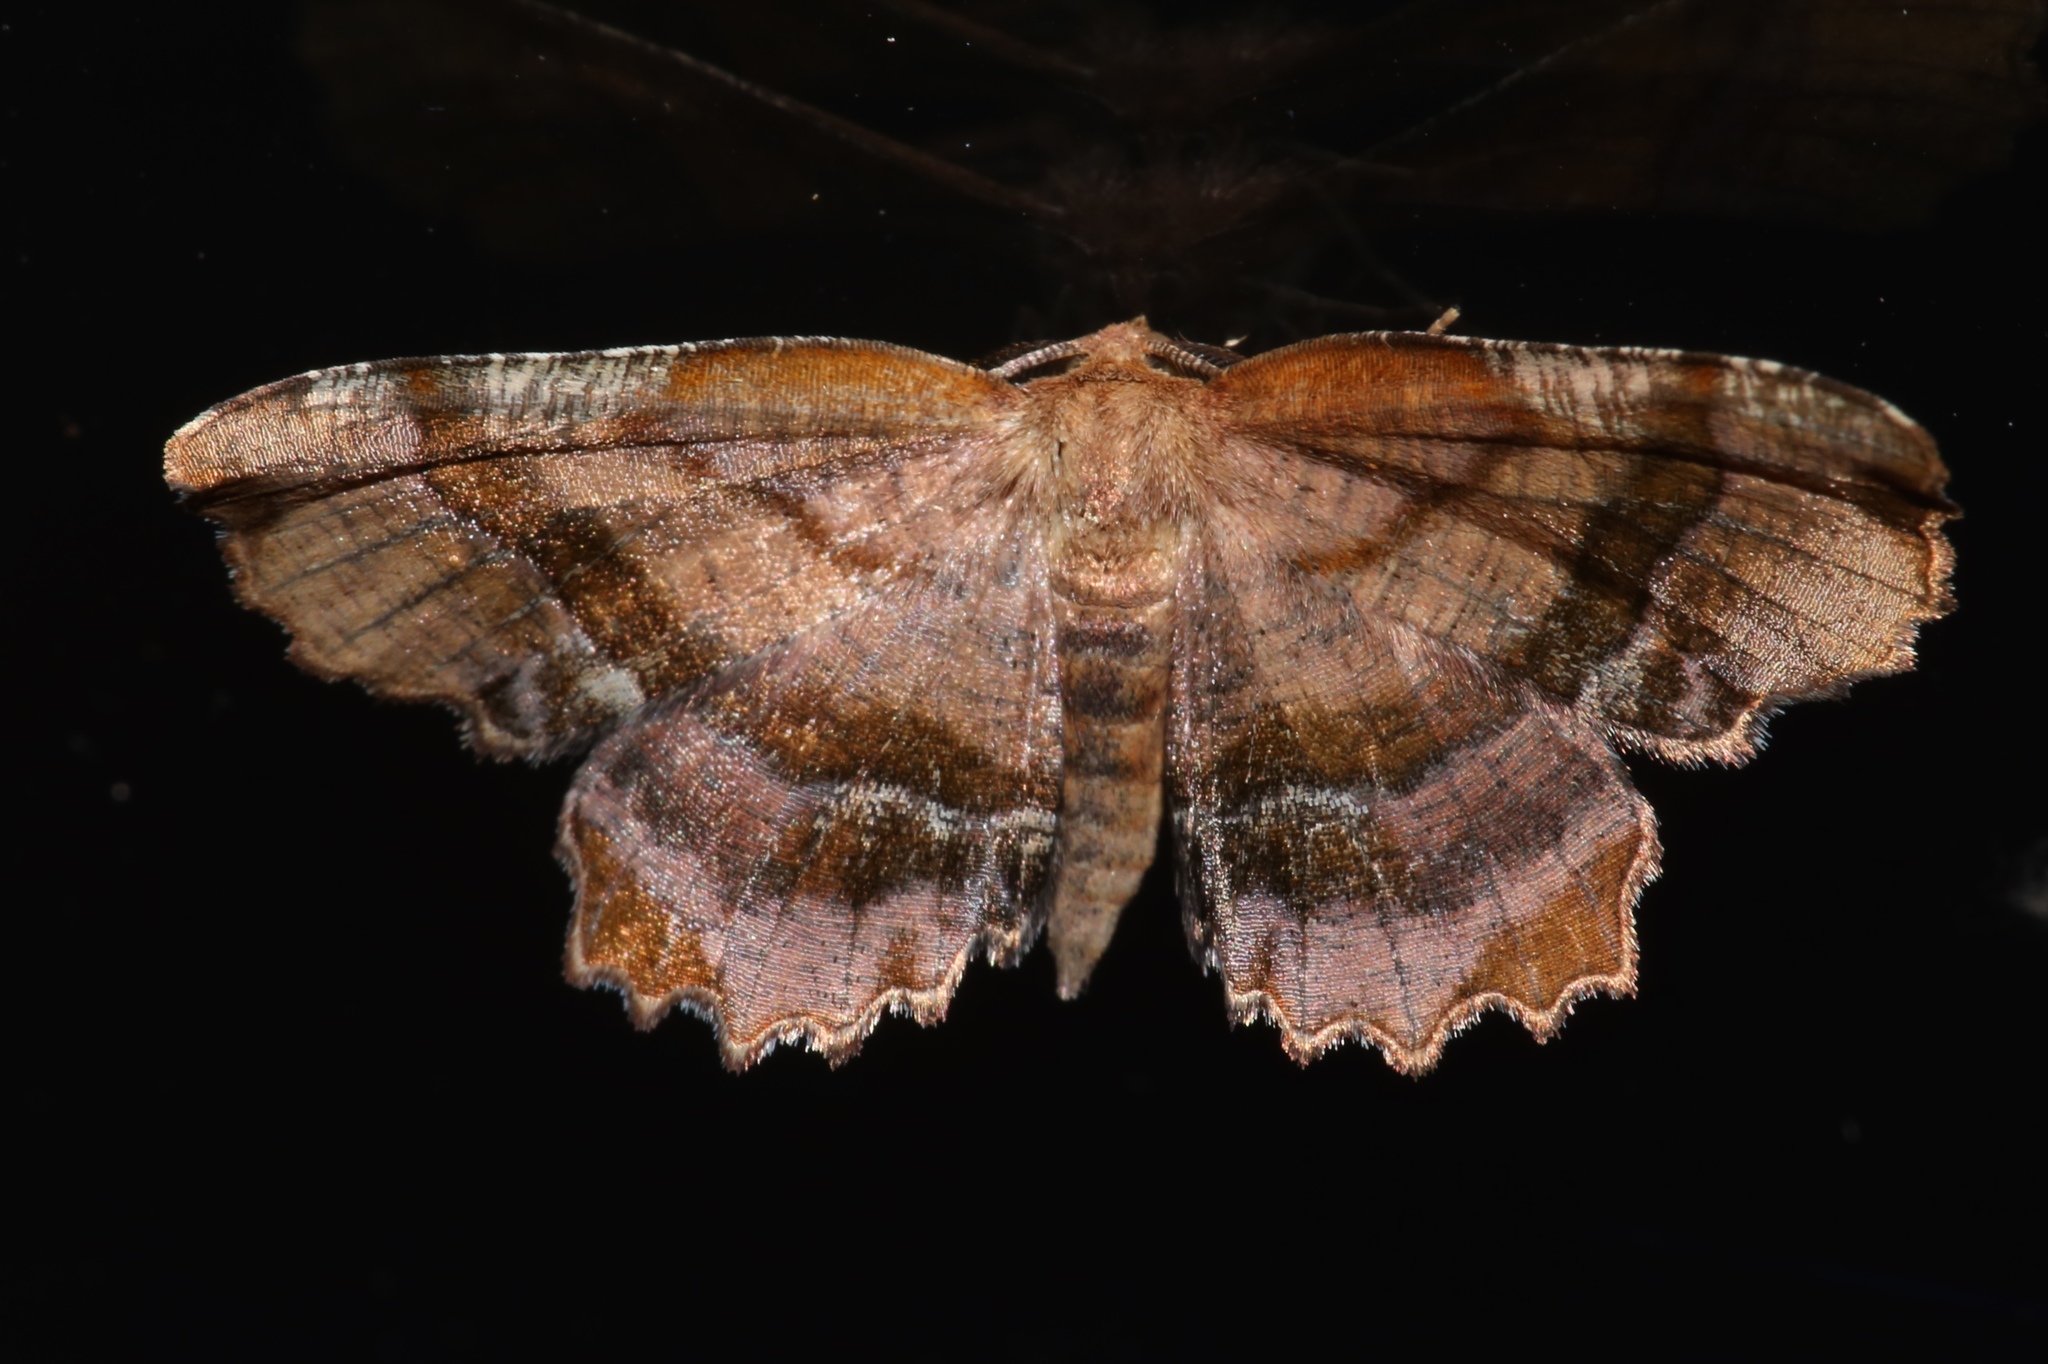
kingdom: Animalia
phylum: Arthropoda
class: Insecta
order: Lepidoptera
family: Geometridae
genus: Cepphis
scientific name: Cepphis armataria
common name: Scallop moth
